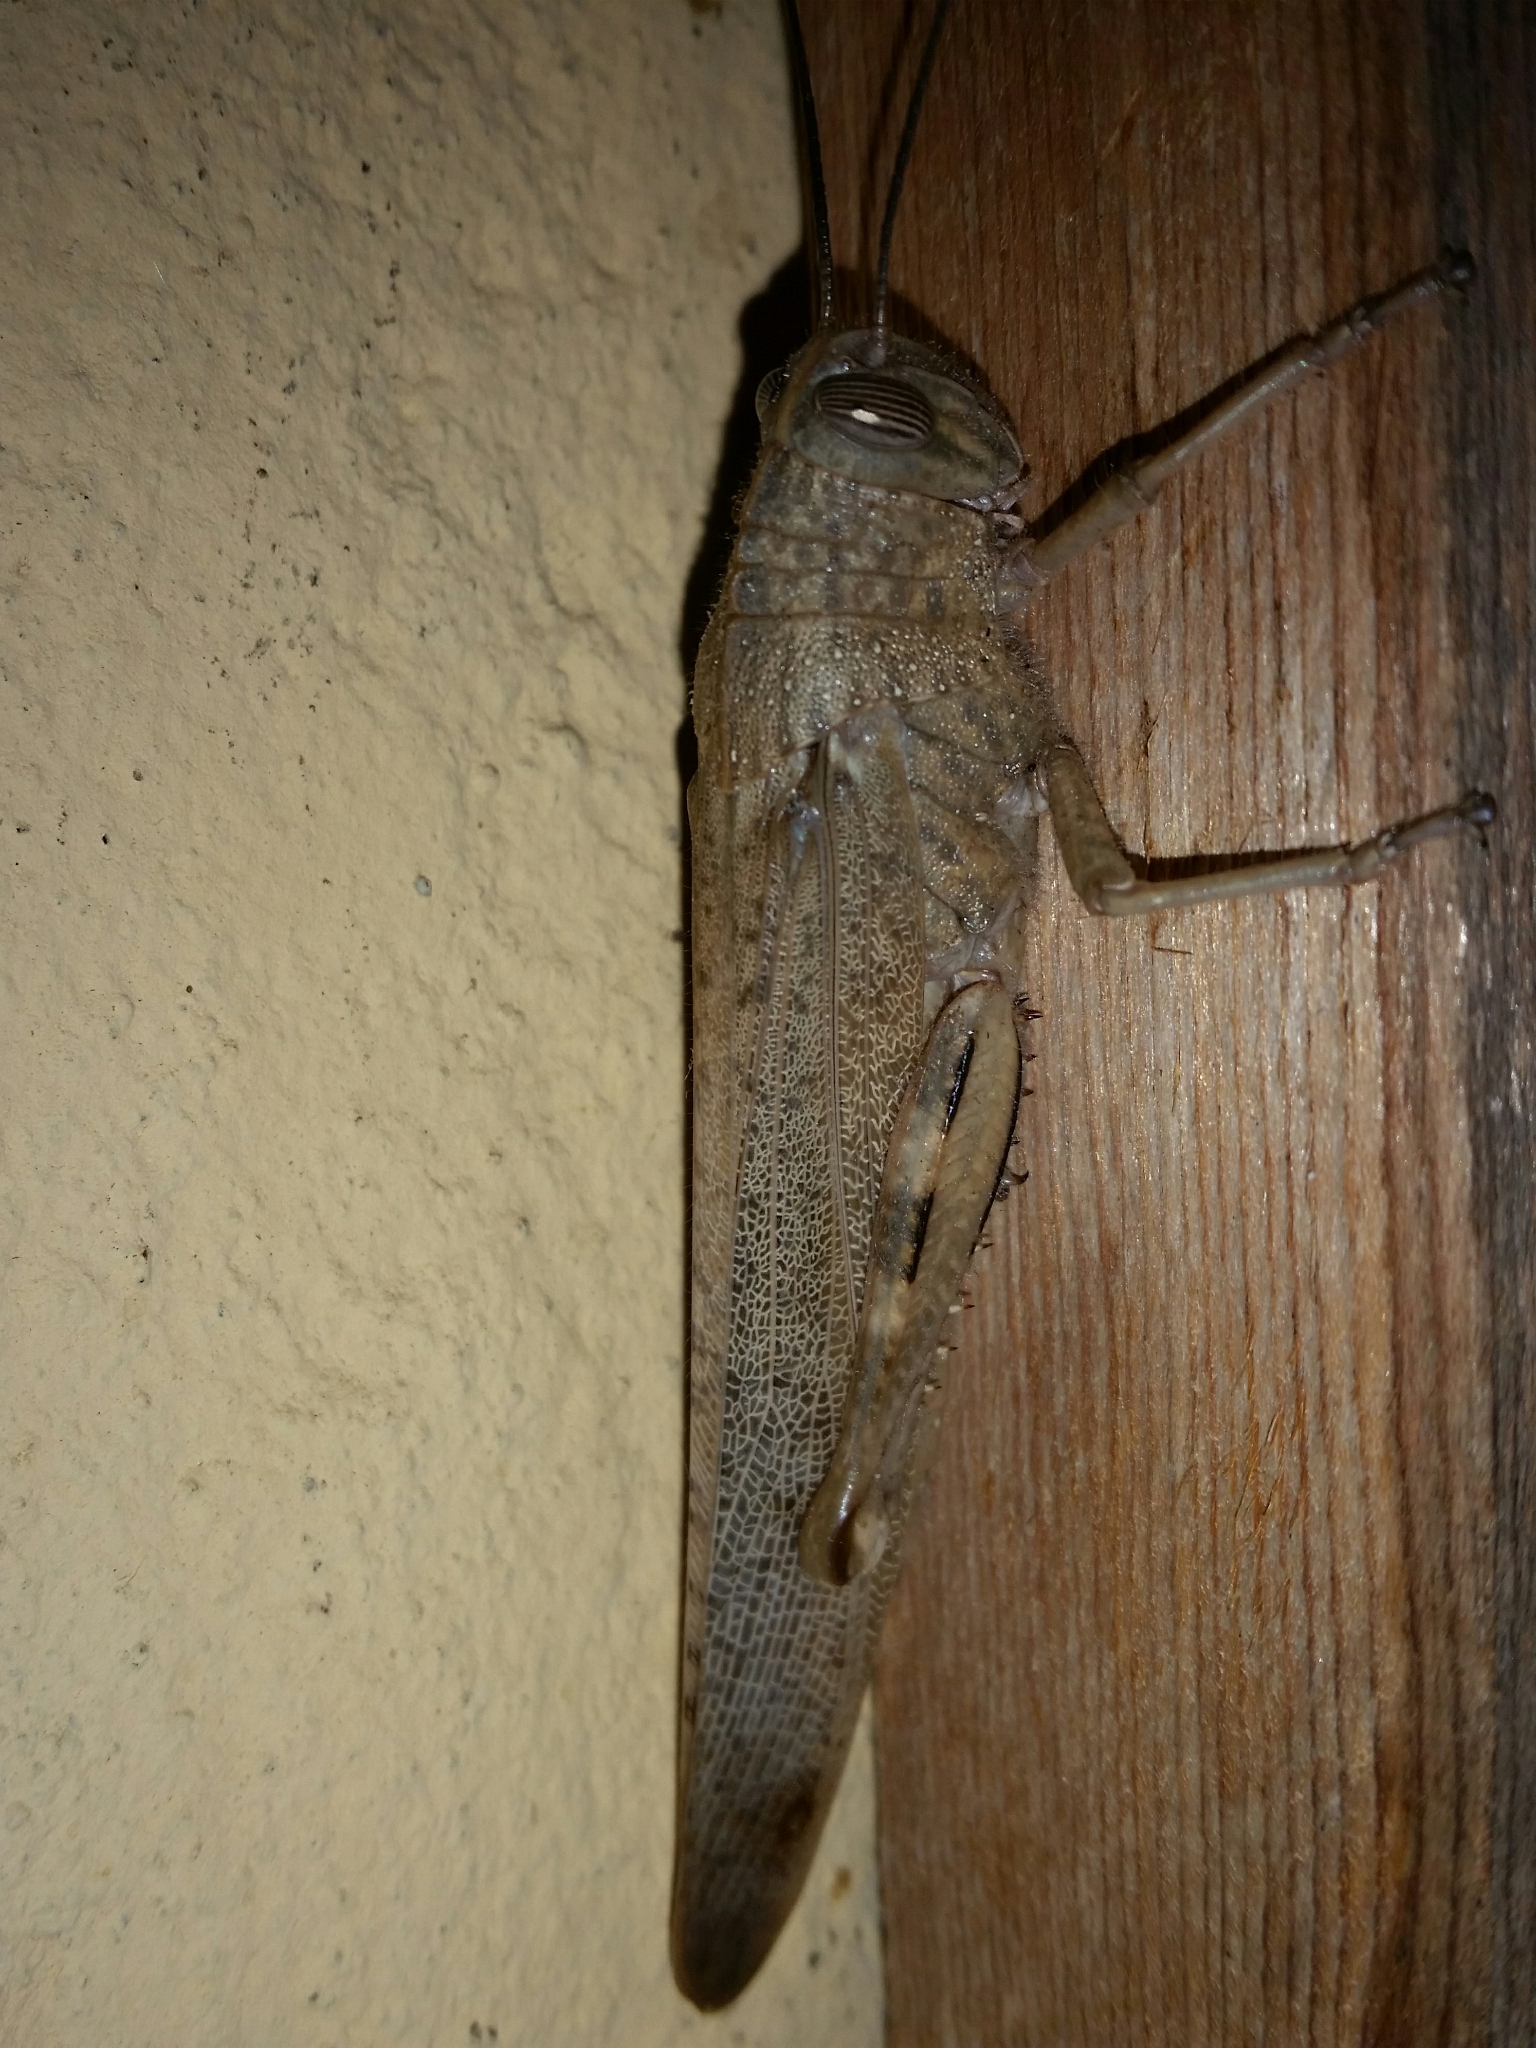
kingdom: Animalia
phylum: Arthropoda
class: Insecta
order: Orthoptera
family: Acrididae
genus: Anacridium
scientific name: Anacridium aegyptium
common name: Egyptian grasshopper
